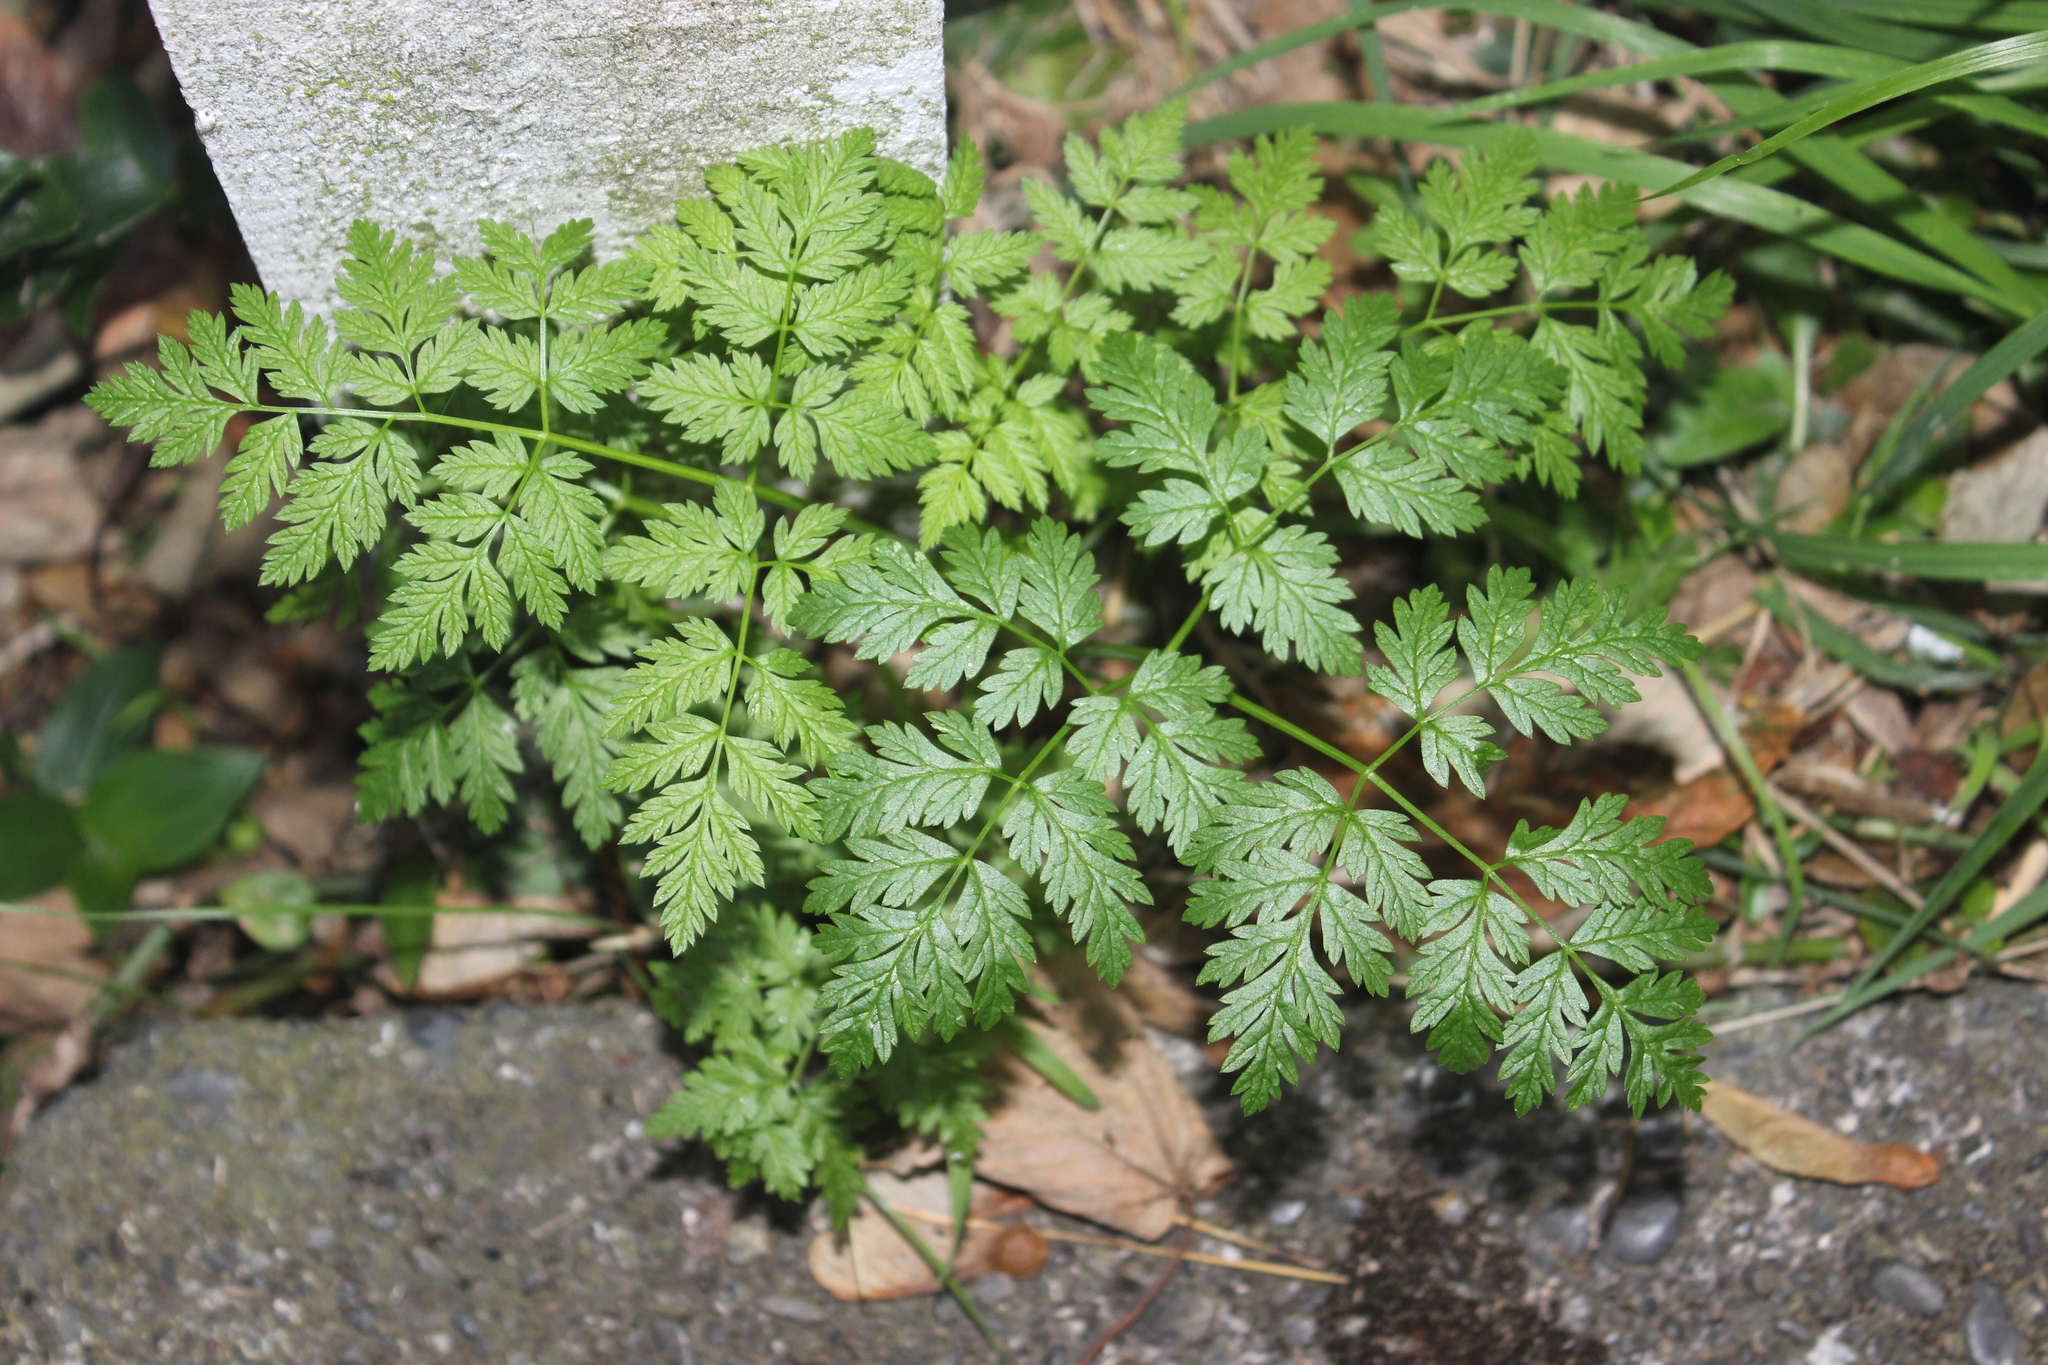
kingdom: Plantae
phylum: Tracheophyta
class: Magnoliopsida
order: Apiales
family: Apiaceae
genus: Conium
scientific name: Conium maculatum
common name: Hemlock
